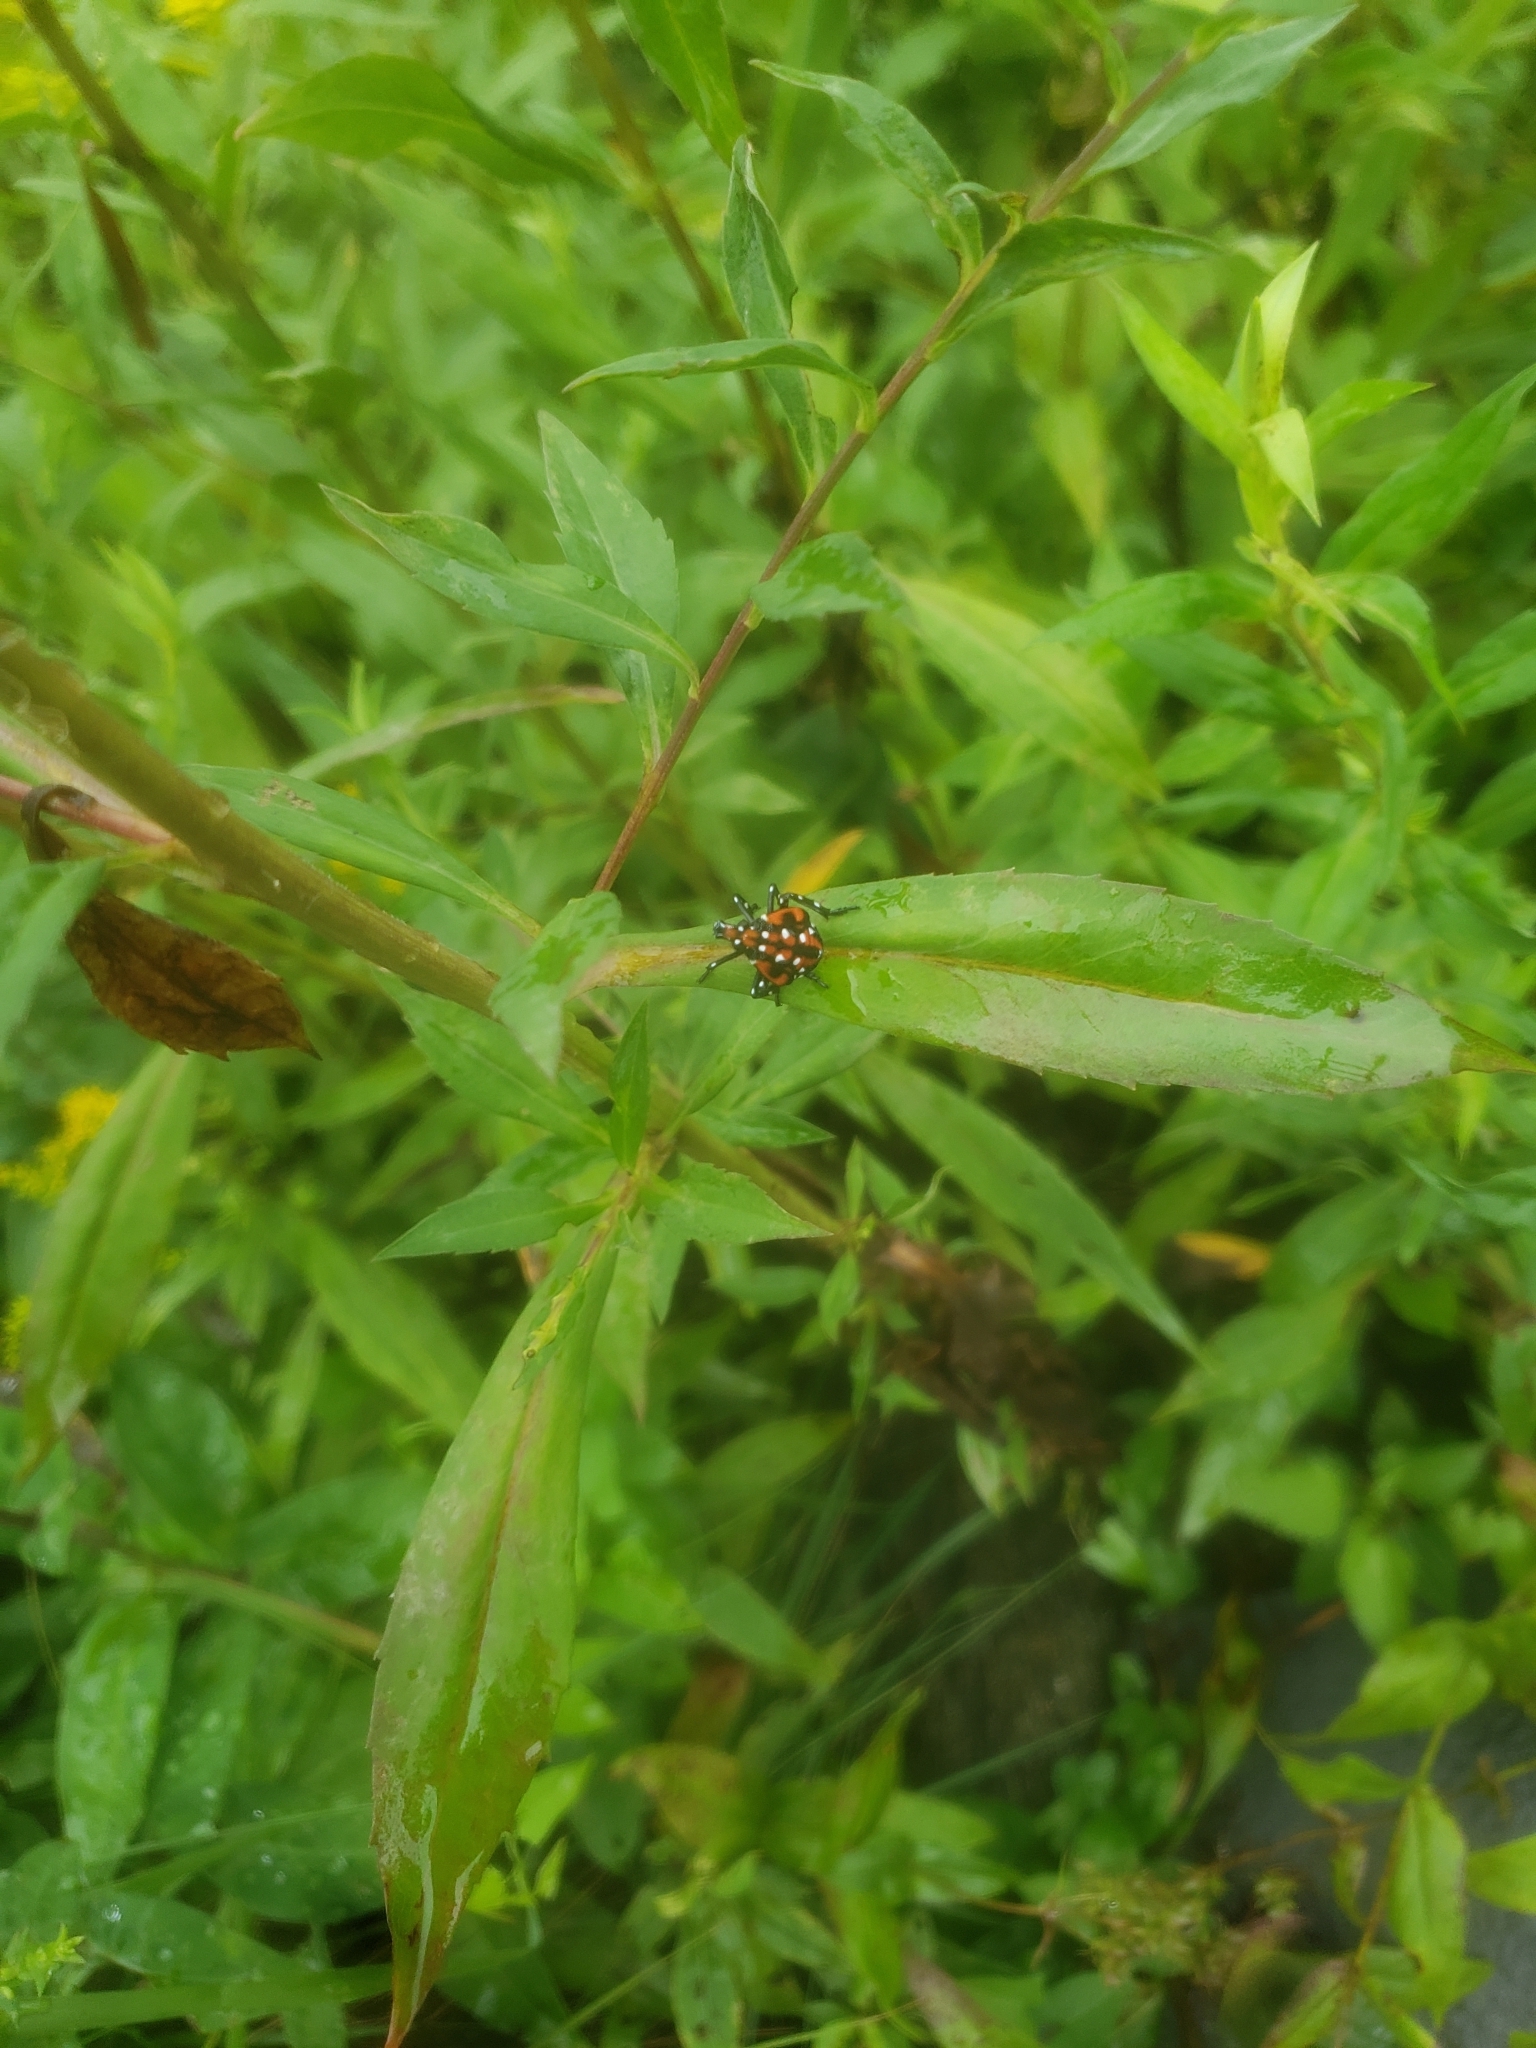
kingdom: Animalia
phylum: Arthropoda
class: Insecta
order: Hemiptera
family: Fulgoridae
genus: Lycorma
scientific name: Lycorma delicatula
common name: Spotted lanternfly
